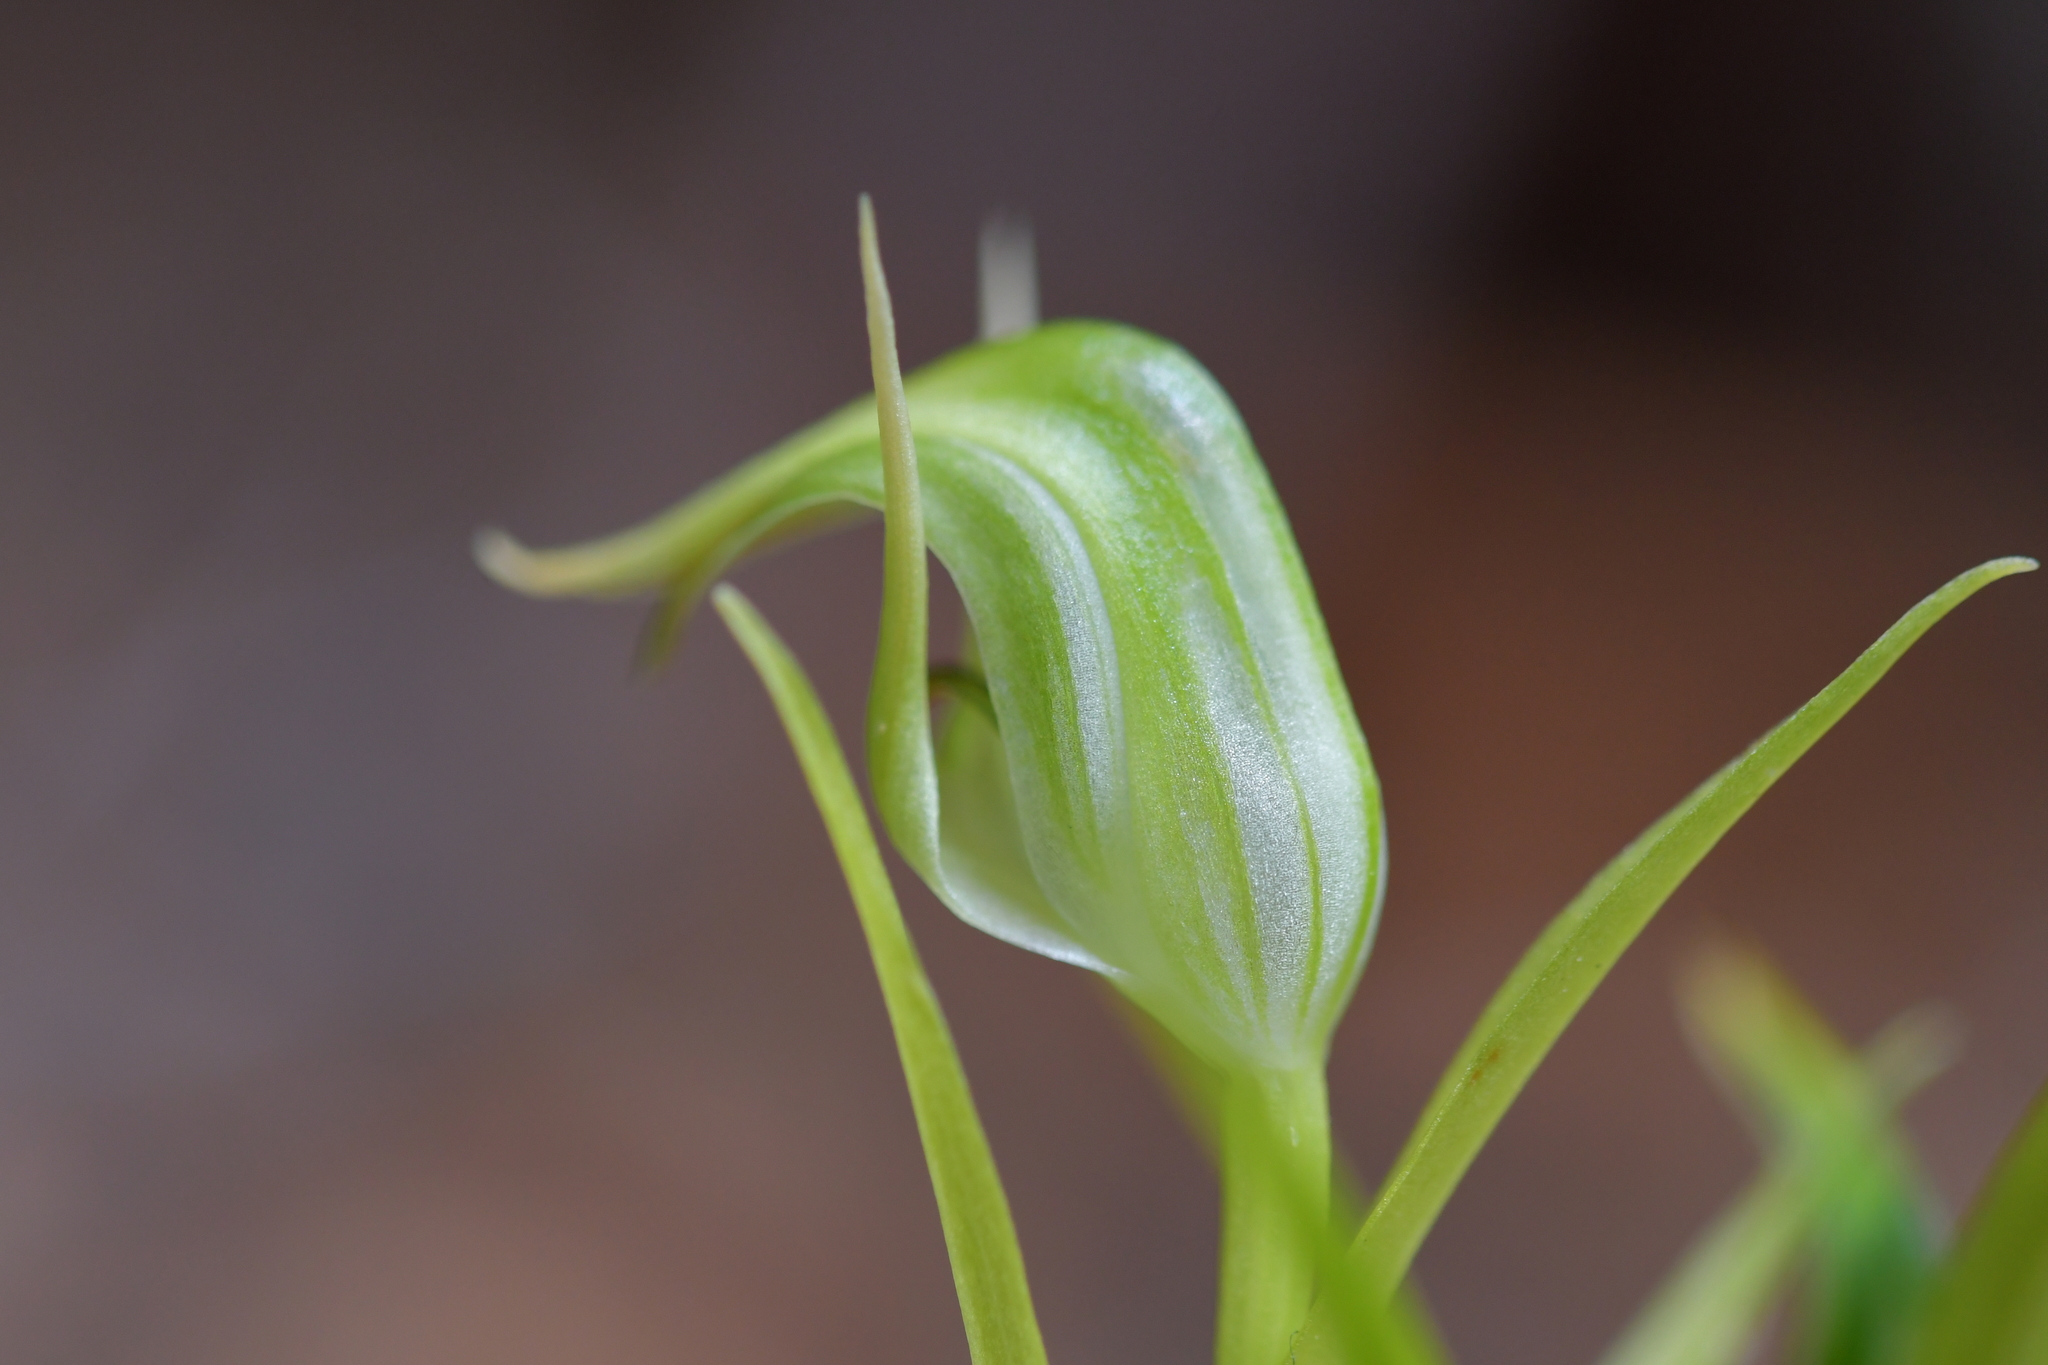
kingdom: Plantae
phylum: Tracheophyta
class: Liliopsida
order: Asparagales
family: Orchidaceae
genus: Pterostylis
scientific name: Pterostylis graminea
